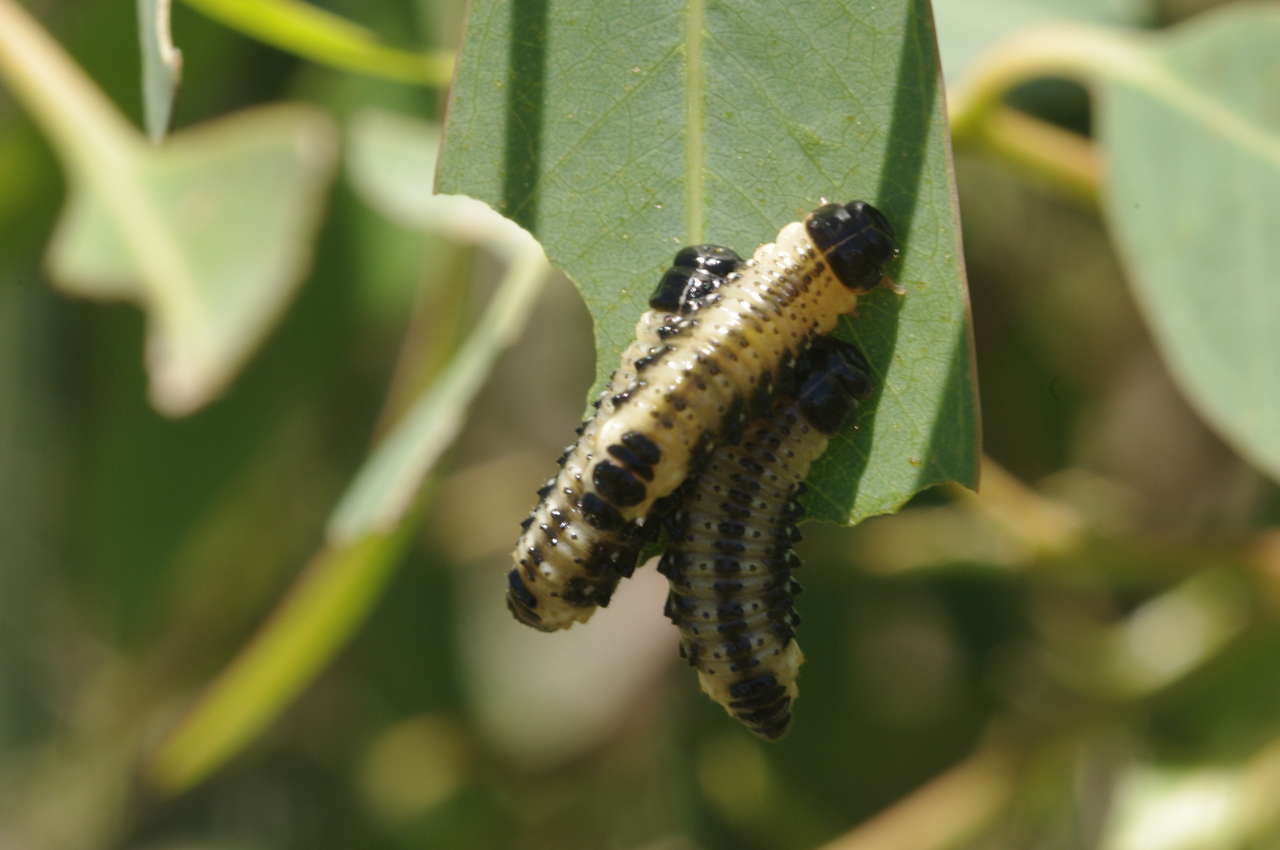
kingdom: Animalia
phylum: Arthropoda
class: Insecta
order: Coleoptera
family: Chrysomelidae
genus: Paropsis
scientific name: Paropsis
